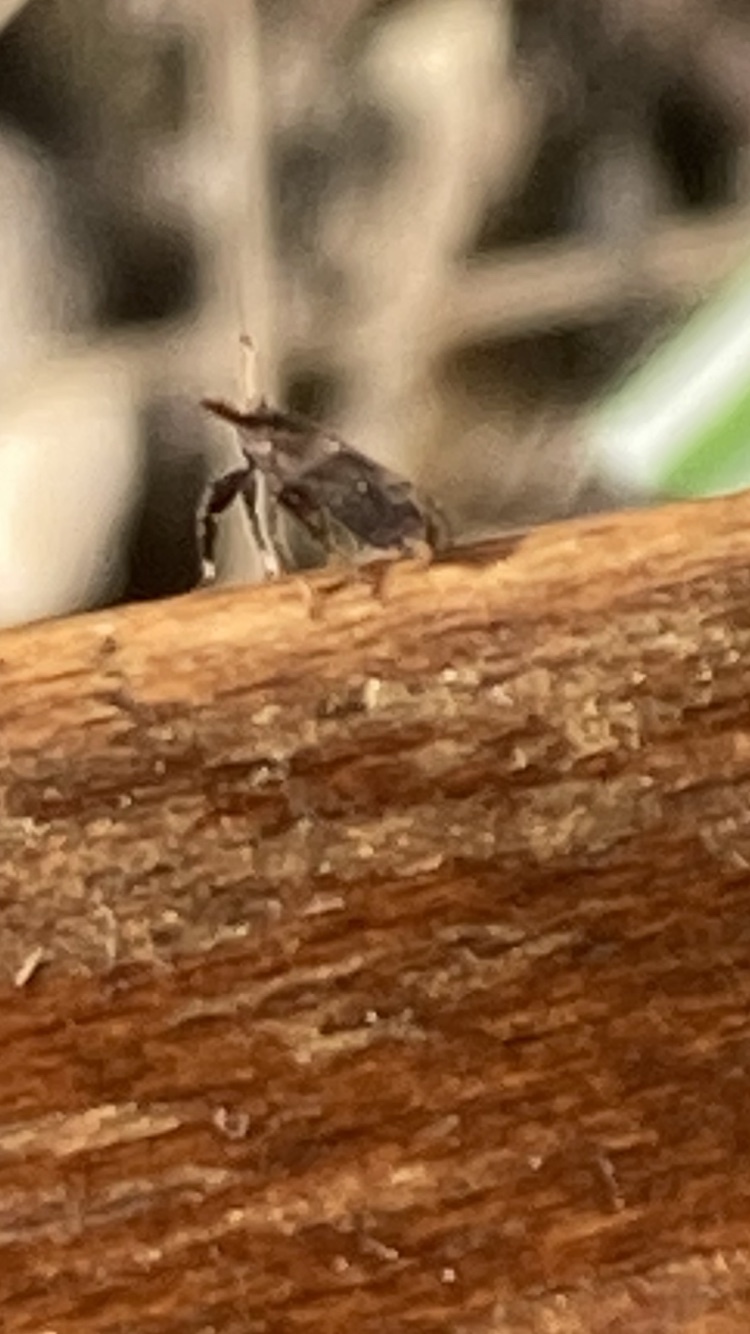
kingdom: Animalia
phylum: Arthropoda
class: Insecta
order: Hemiptera
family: Delphacidae
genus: Asiraca
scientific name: Asiraca clavicornis
